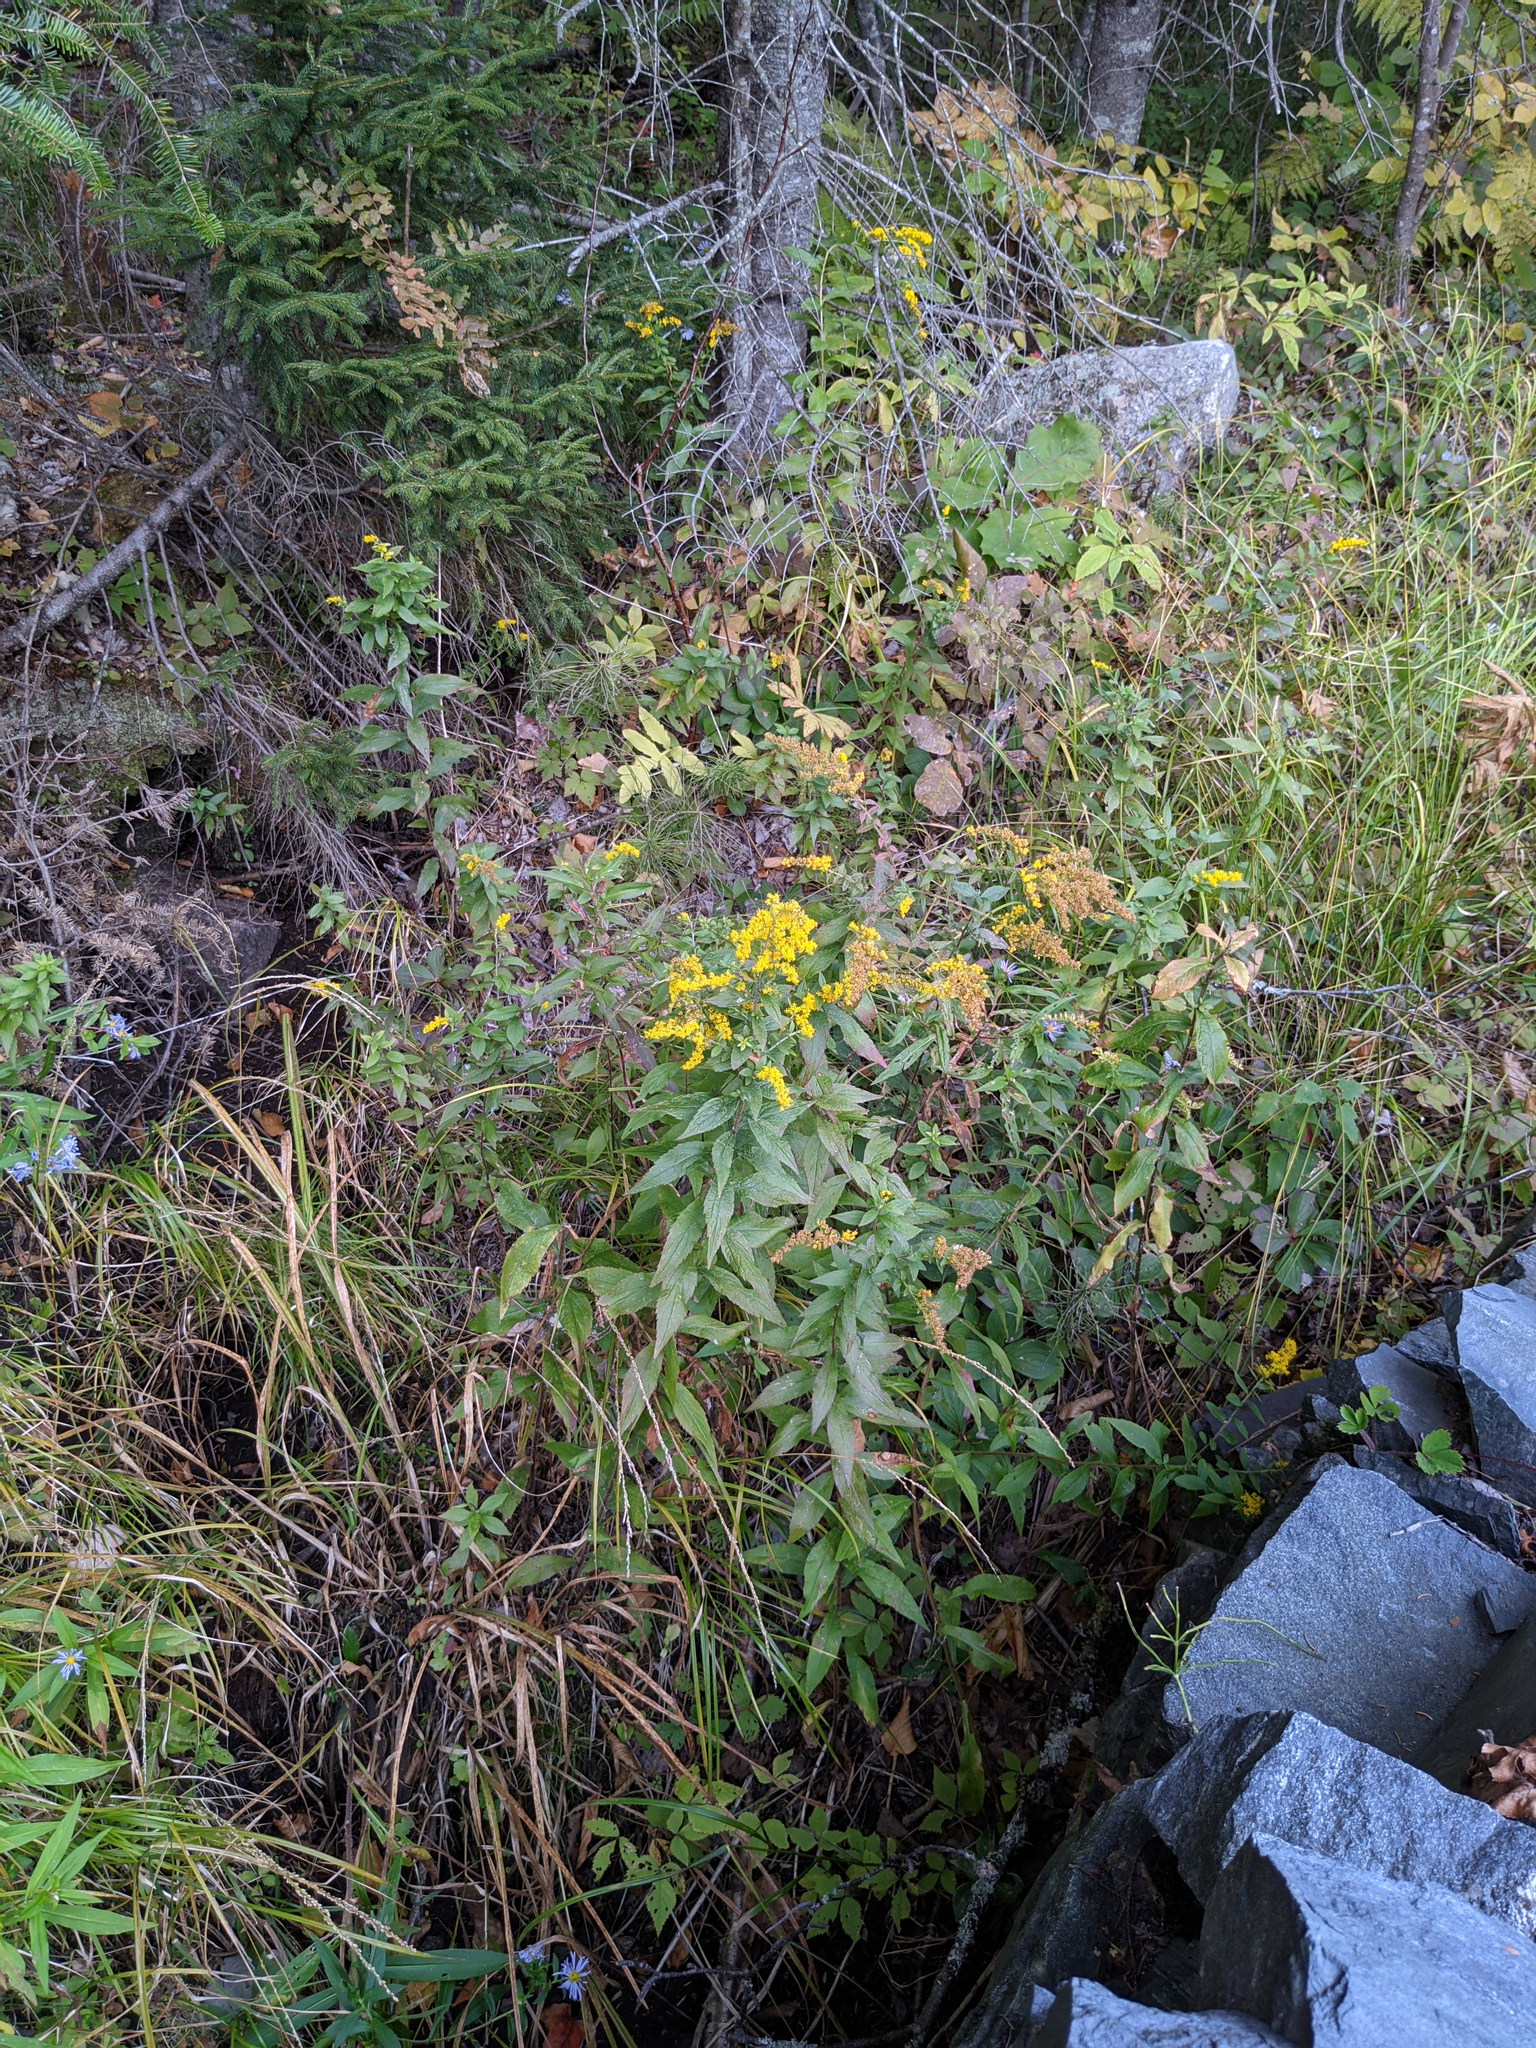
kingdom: Plantae
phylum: Tracheophyta
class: Magnoliopsida
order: Asterales
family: Asteraceae
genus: Solidago
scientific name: Solidago rugosa
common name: Rough-stemmed goldenrod
